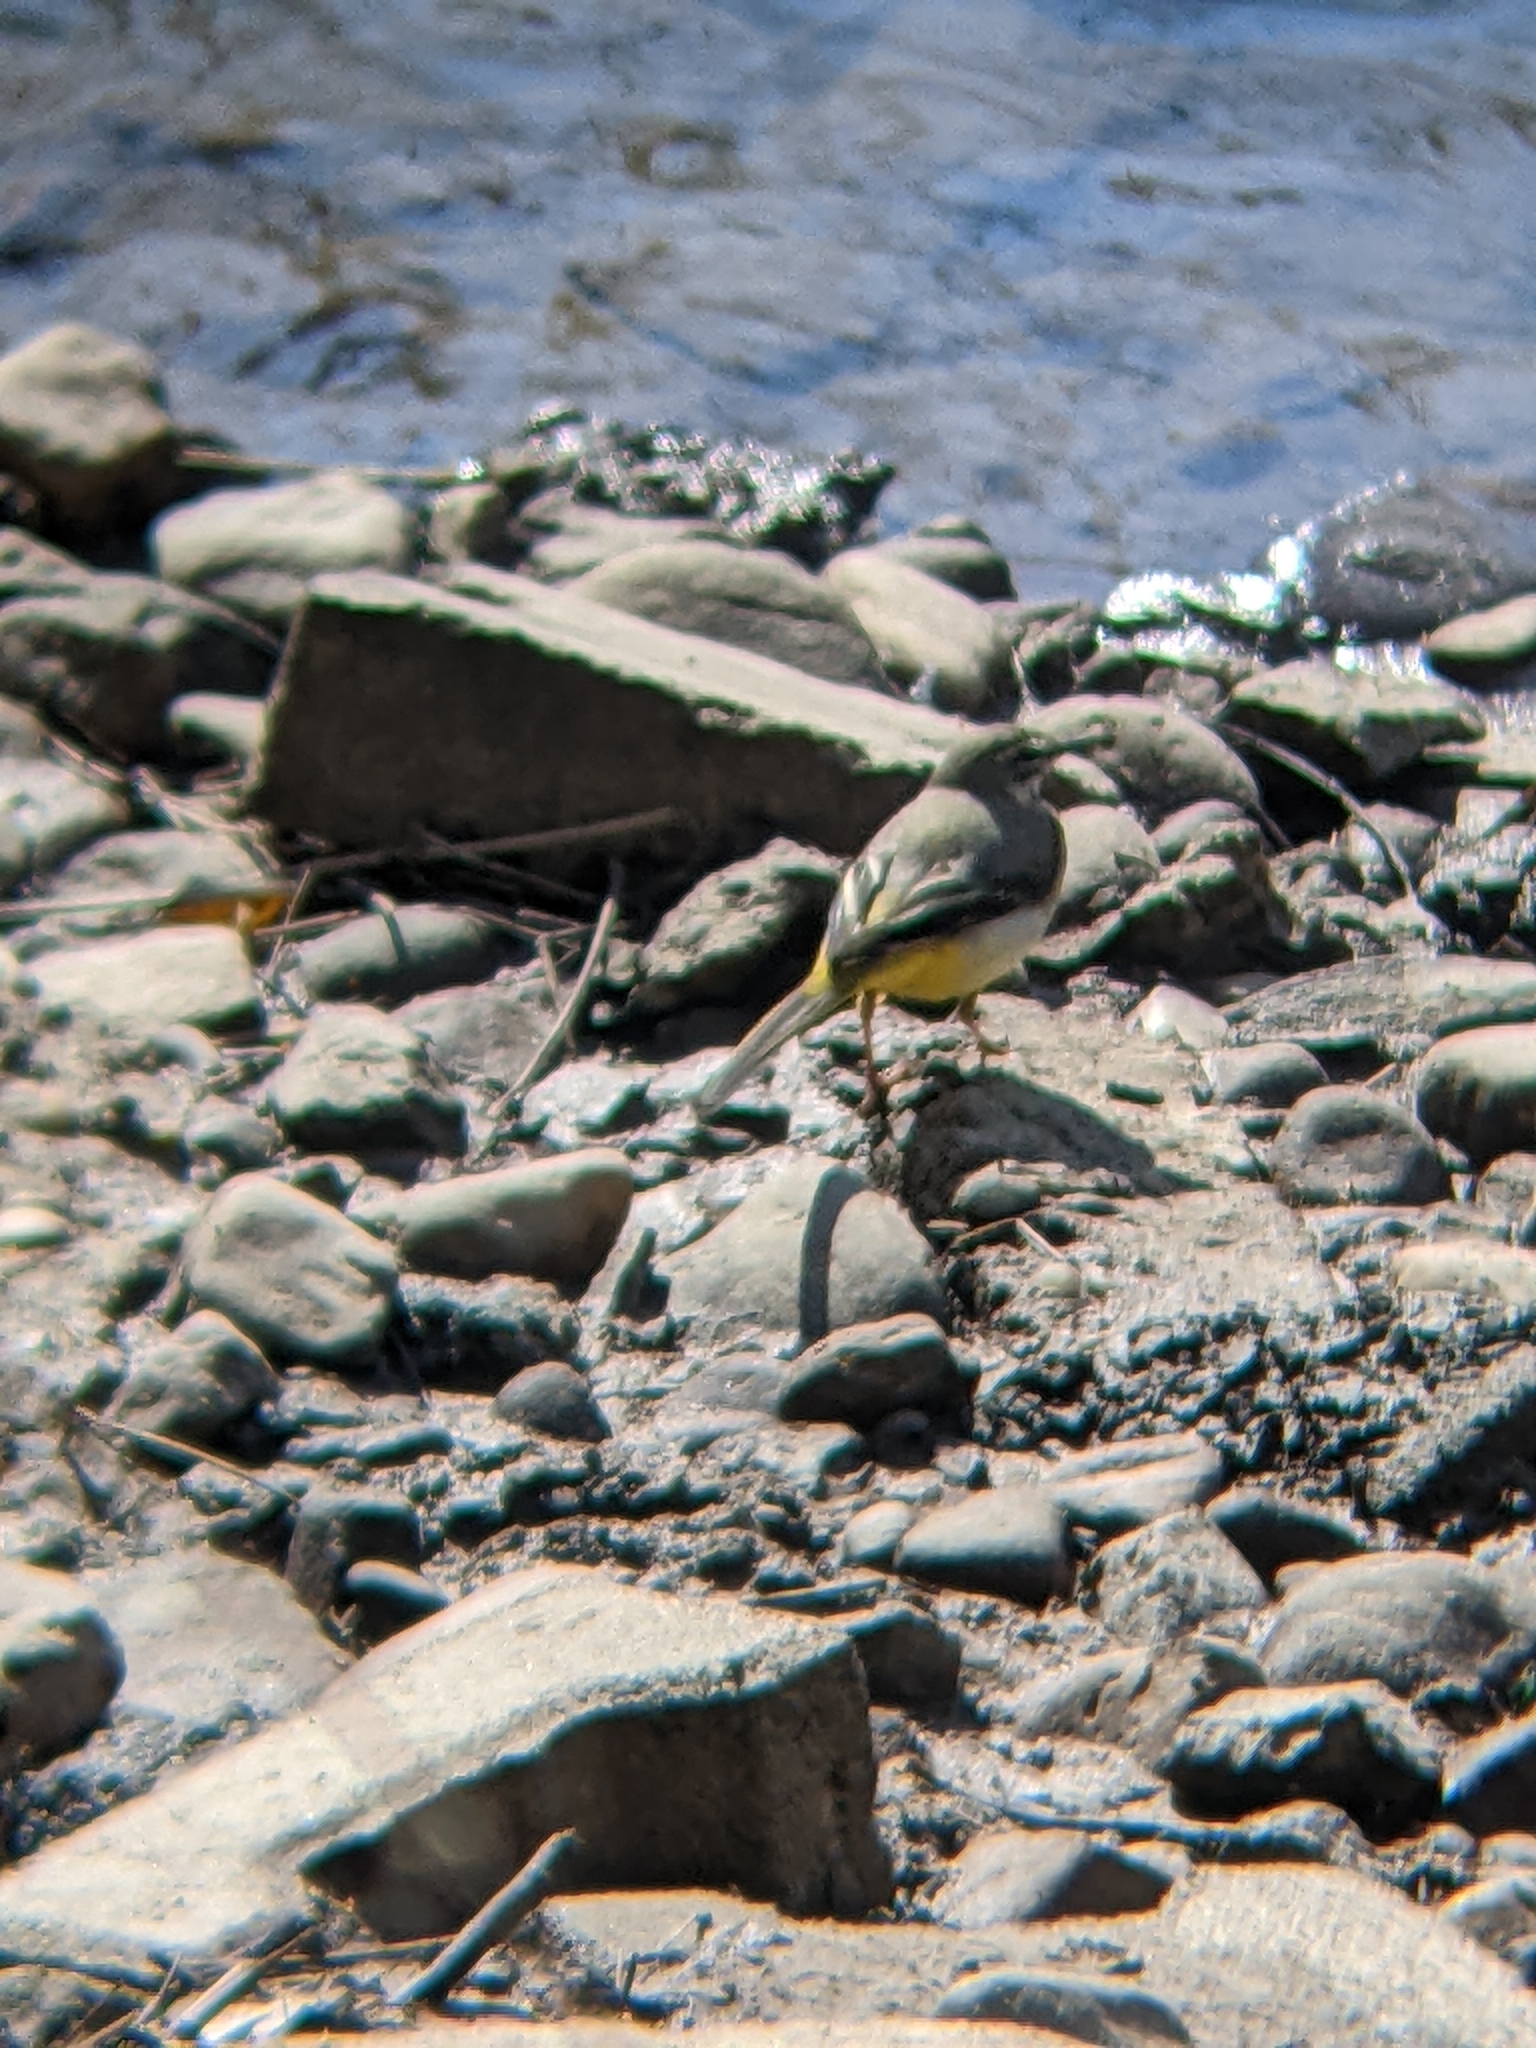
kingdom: Animalia
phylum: Chordata
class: Aves
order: Passeriformes
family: Motacillidae
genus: Motacilla
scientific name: Motacilla cinerea
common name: Grey wagtail
